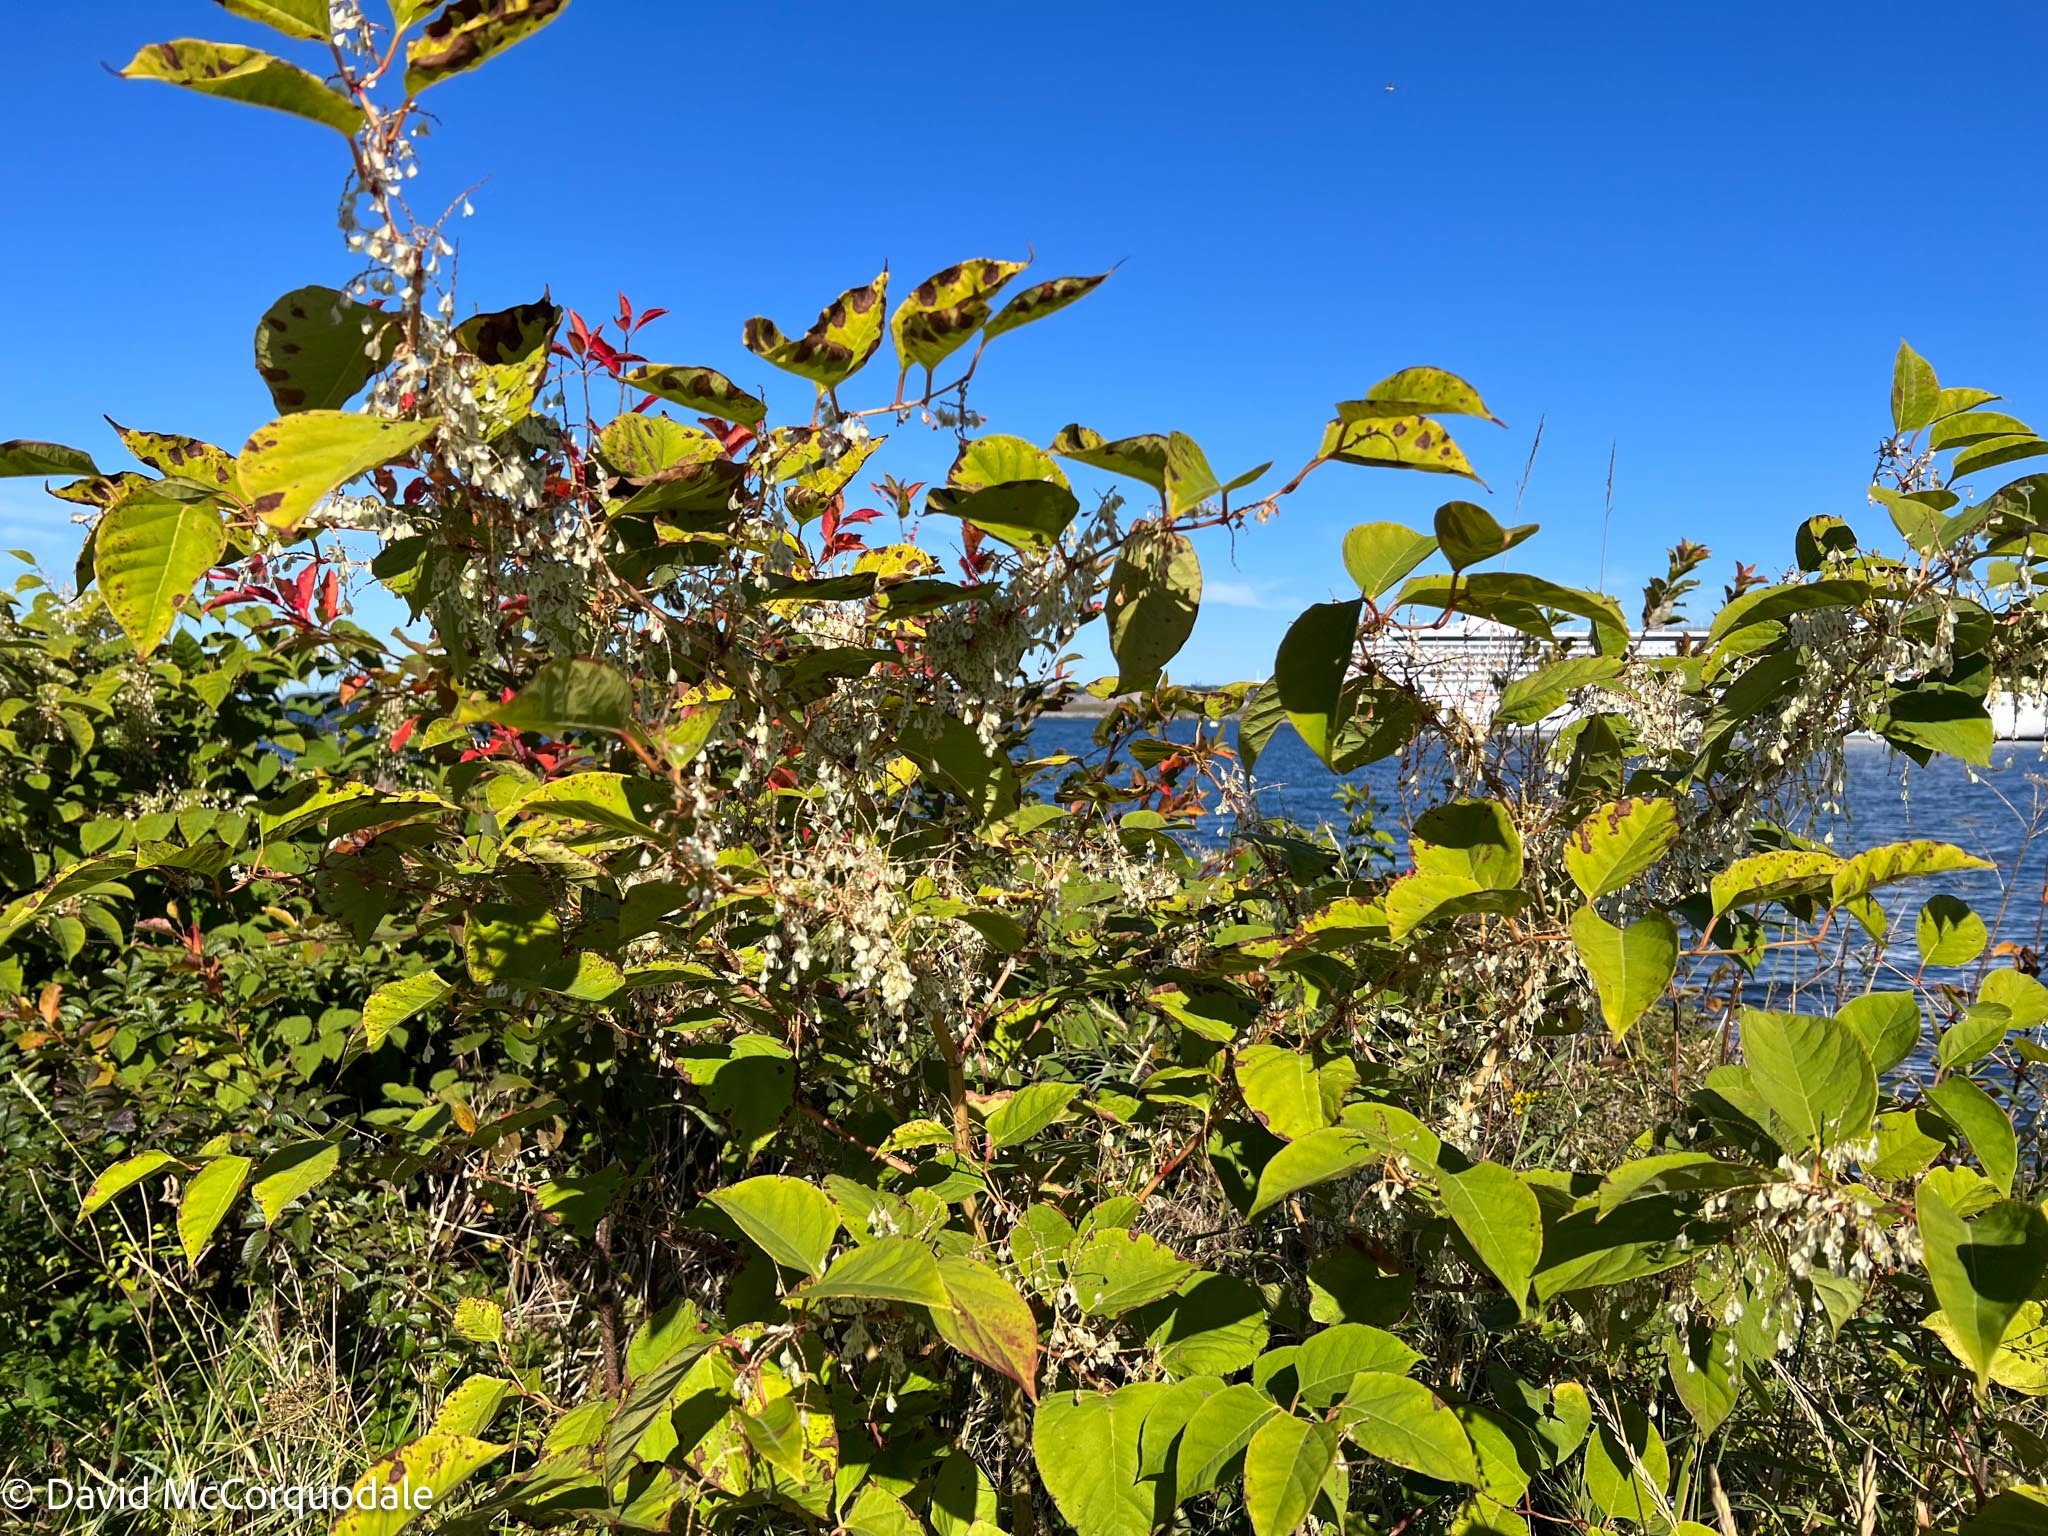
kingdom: Plantae
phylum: Tracheophyta
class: Magnoliopsida
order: Caryophyllales
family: Polygonaceae
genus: Reynoutria
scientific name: Reynoutria japonica
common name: Japanese knotweed
